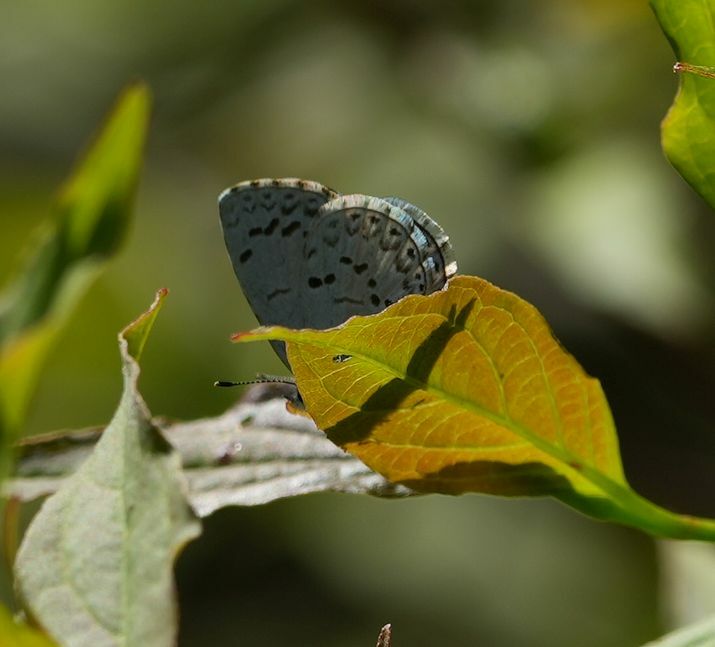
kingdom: Animalia
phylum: Arthropoda
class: Insecta
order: Lepidoptera
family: Lycaenidae
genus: Celastrina
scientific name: Celastrina lucia
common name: Lucia azure
